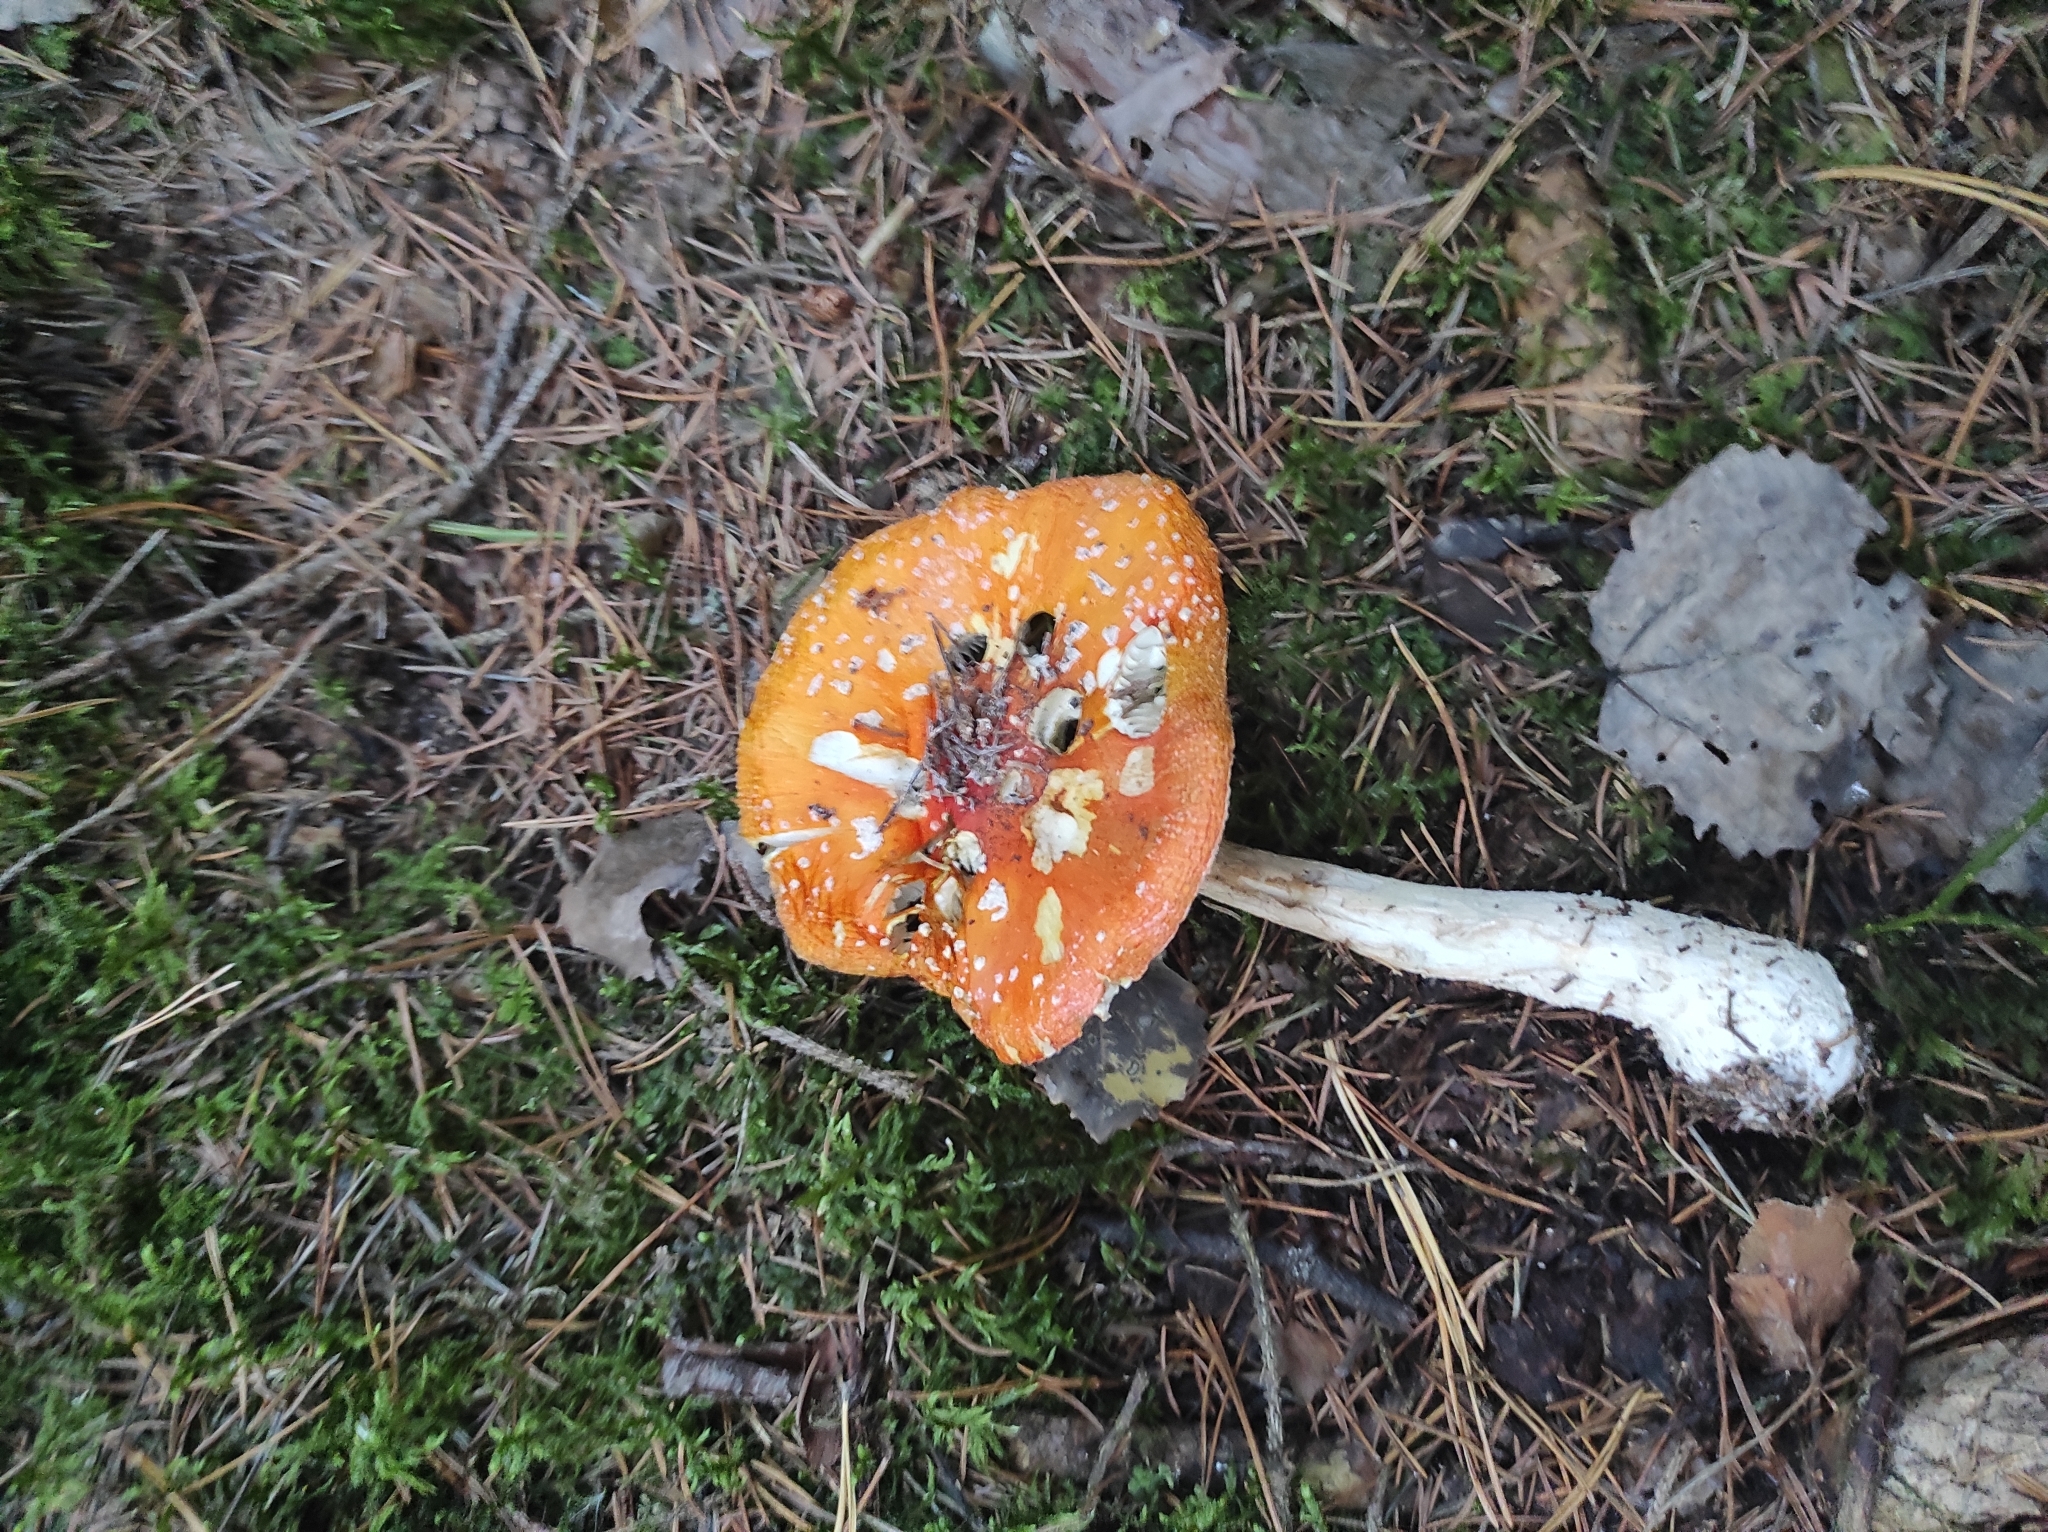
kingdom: Fungi
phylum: Basidiomycota
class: Agaricomycetes
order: Agaricales
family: Amanitaceae
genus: Amanita
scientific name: Amanita muscaria
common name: Fly agaric
